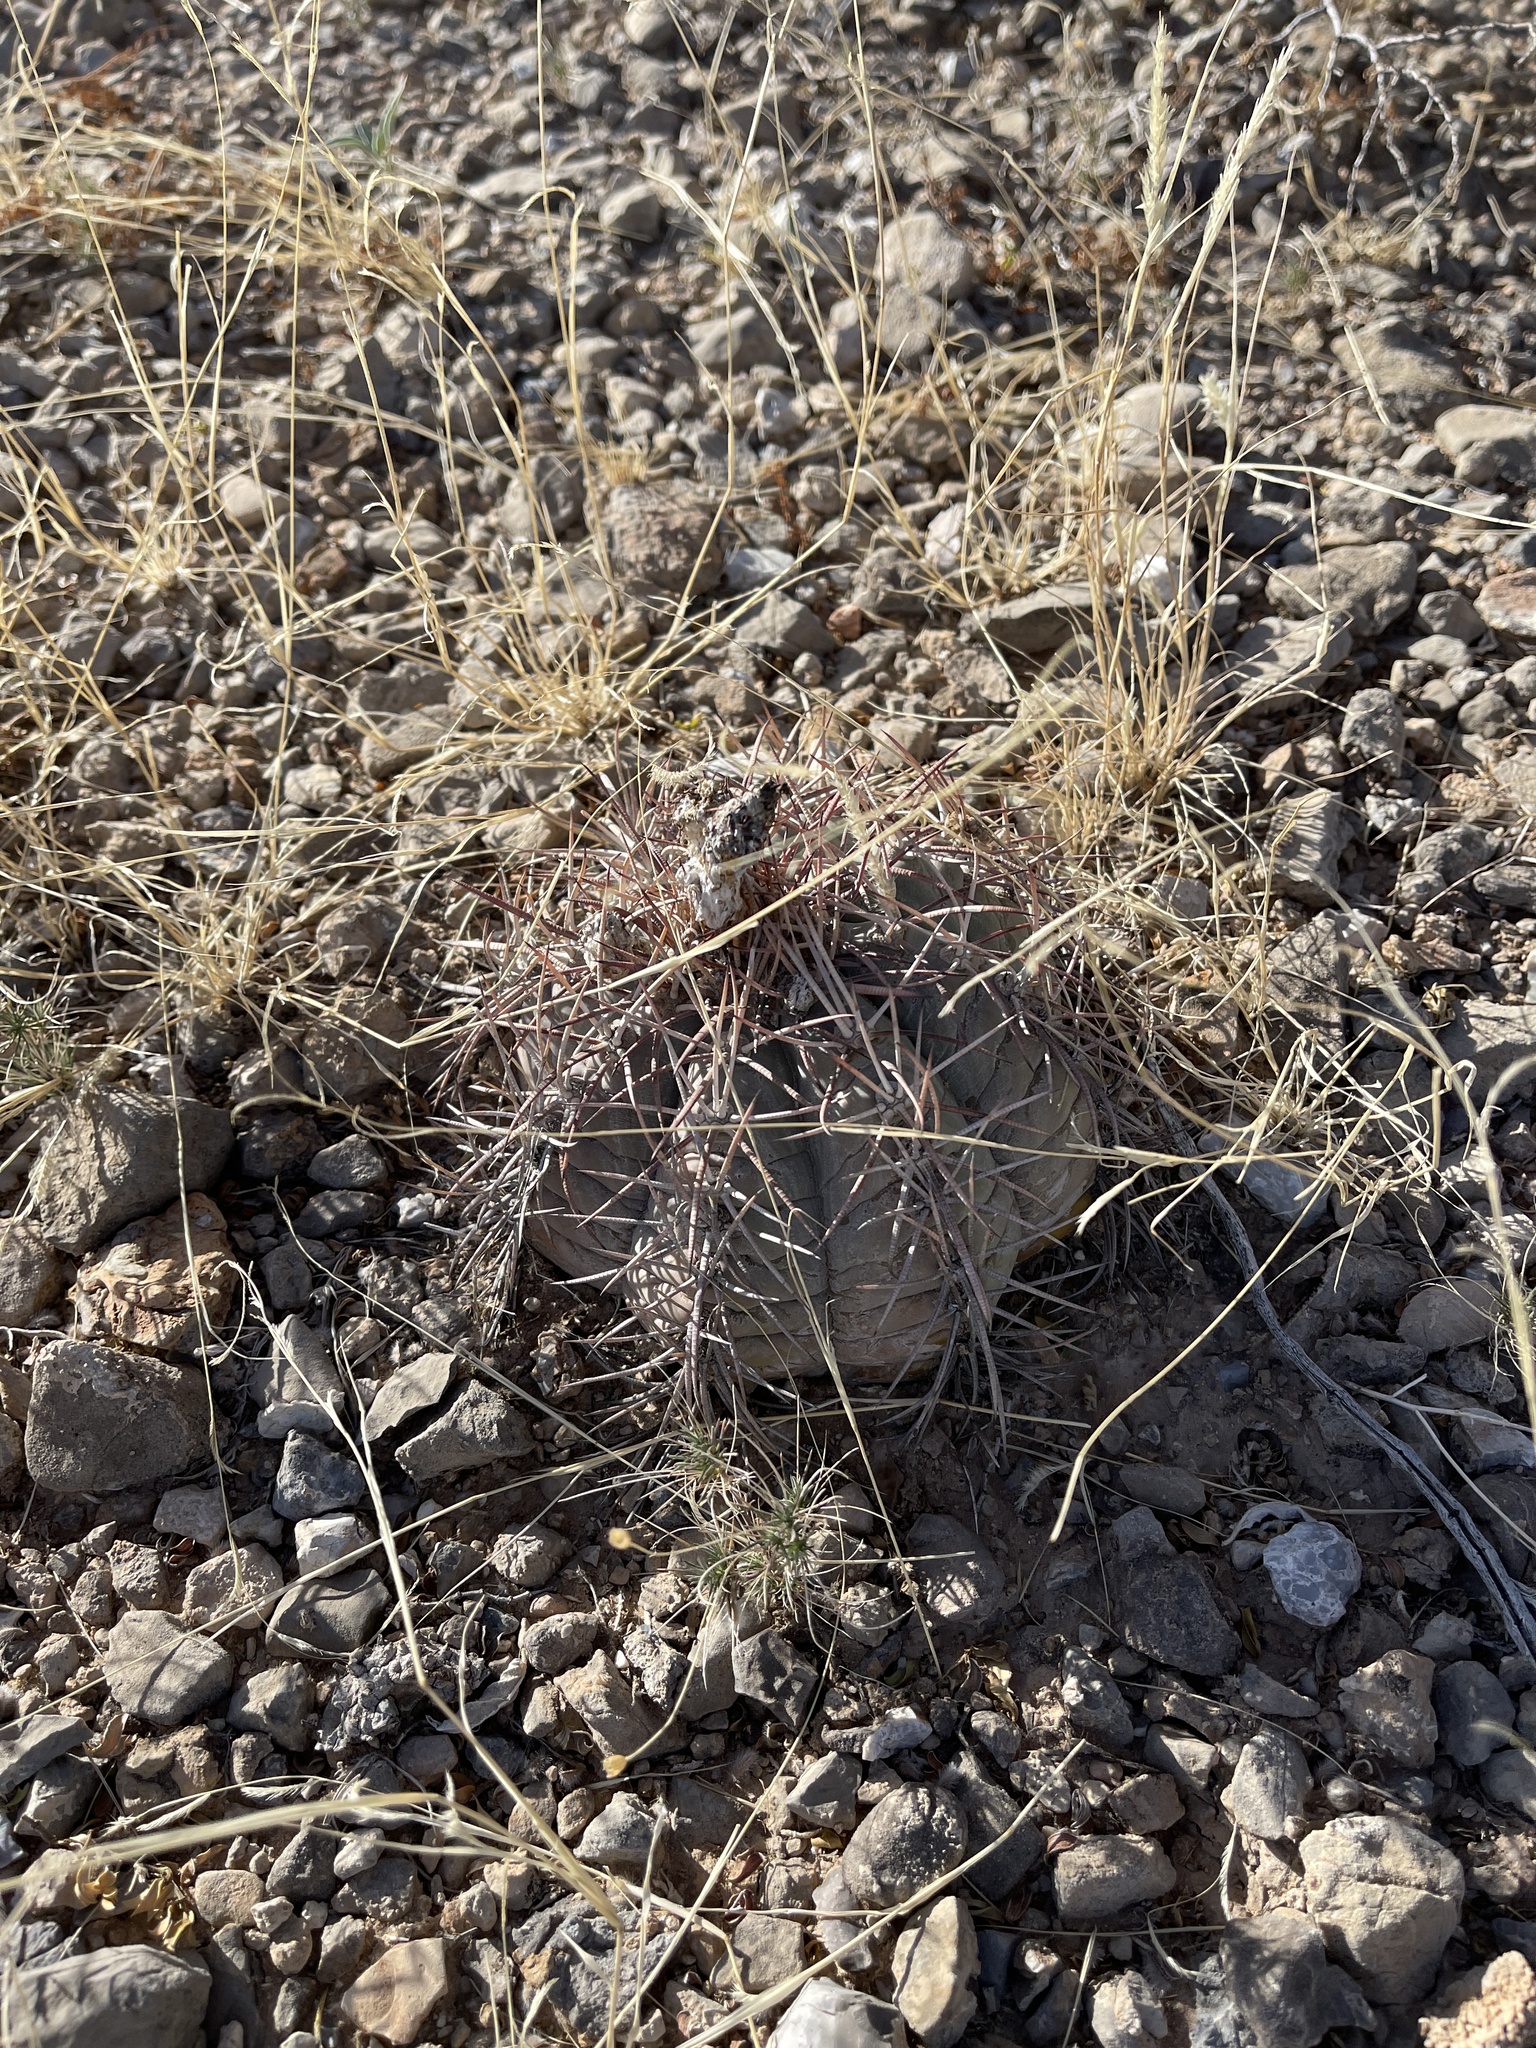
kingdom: Plantae
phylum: Tracheophyta
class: Magnoliopsida
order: Caryophyllales
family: Cactaceae
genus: Echinocactus
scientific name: Echinocactus horizonthalonius
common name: Devilshead
